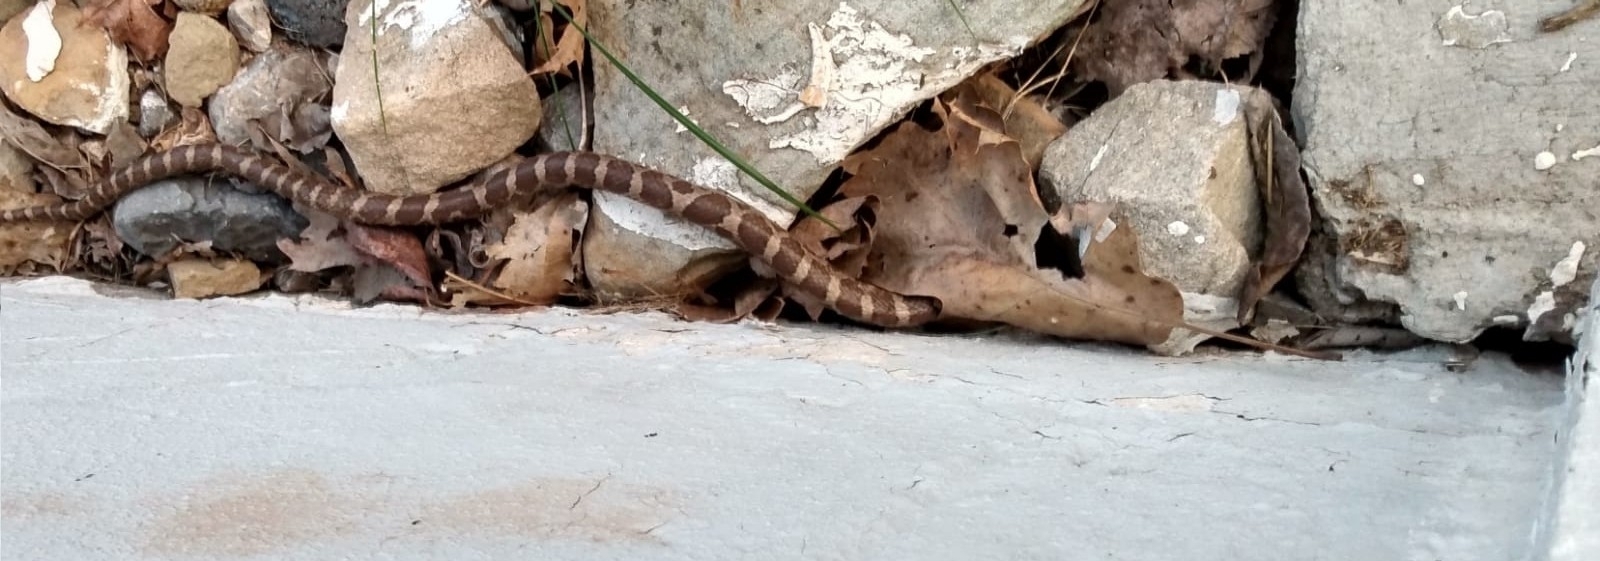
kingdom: Animalia
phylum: Chordata
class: Squamata
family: Colubridae
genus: Lampropeltis
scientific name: Lampropeltis triangulum
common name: Eastern milksnake
